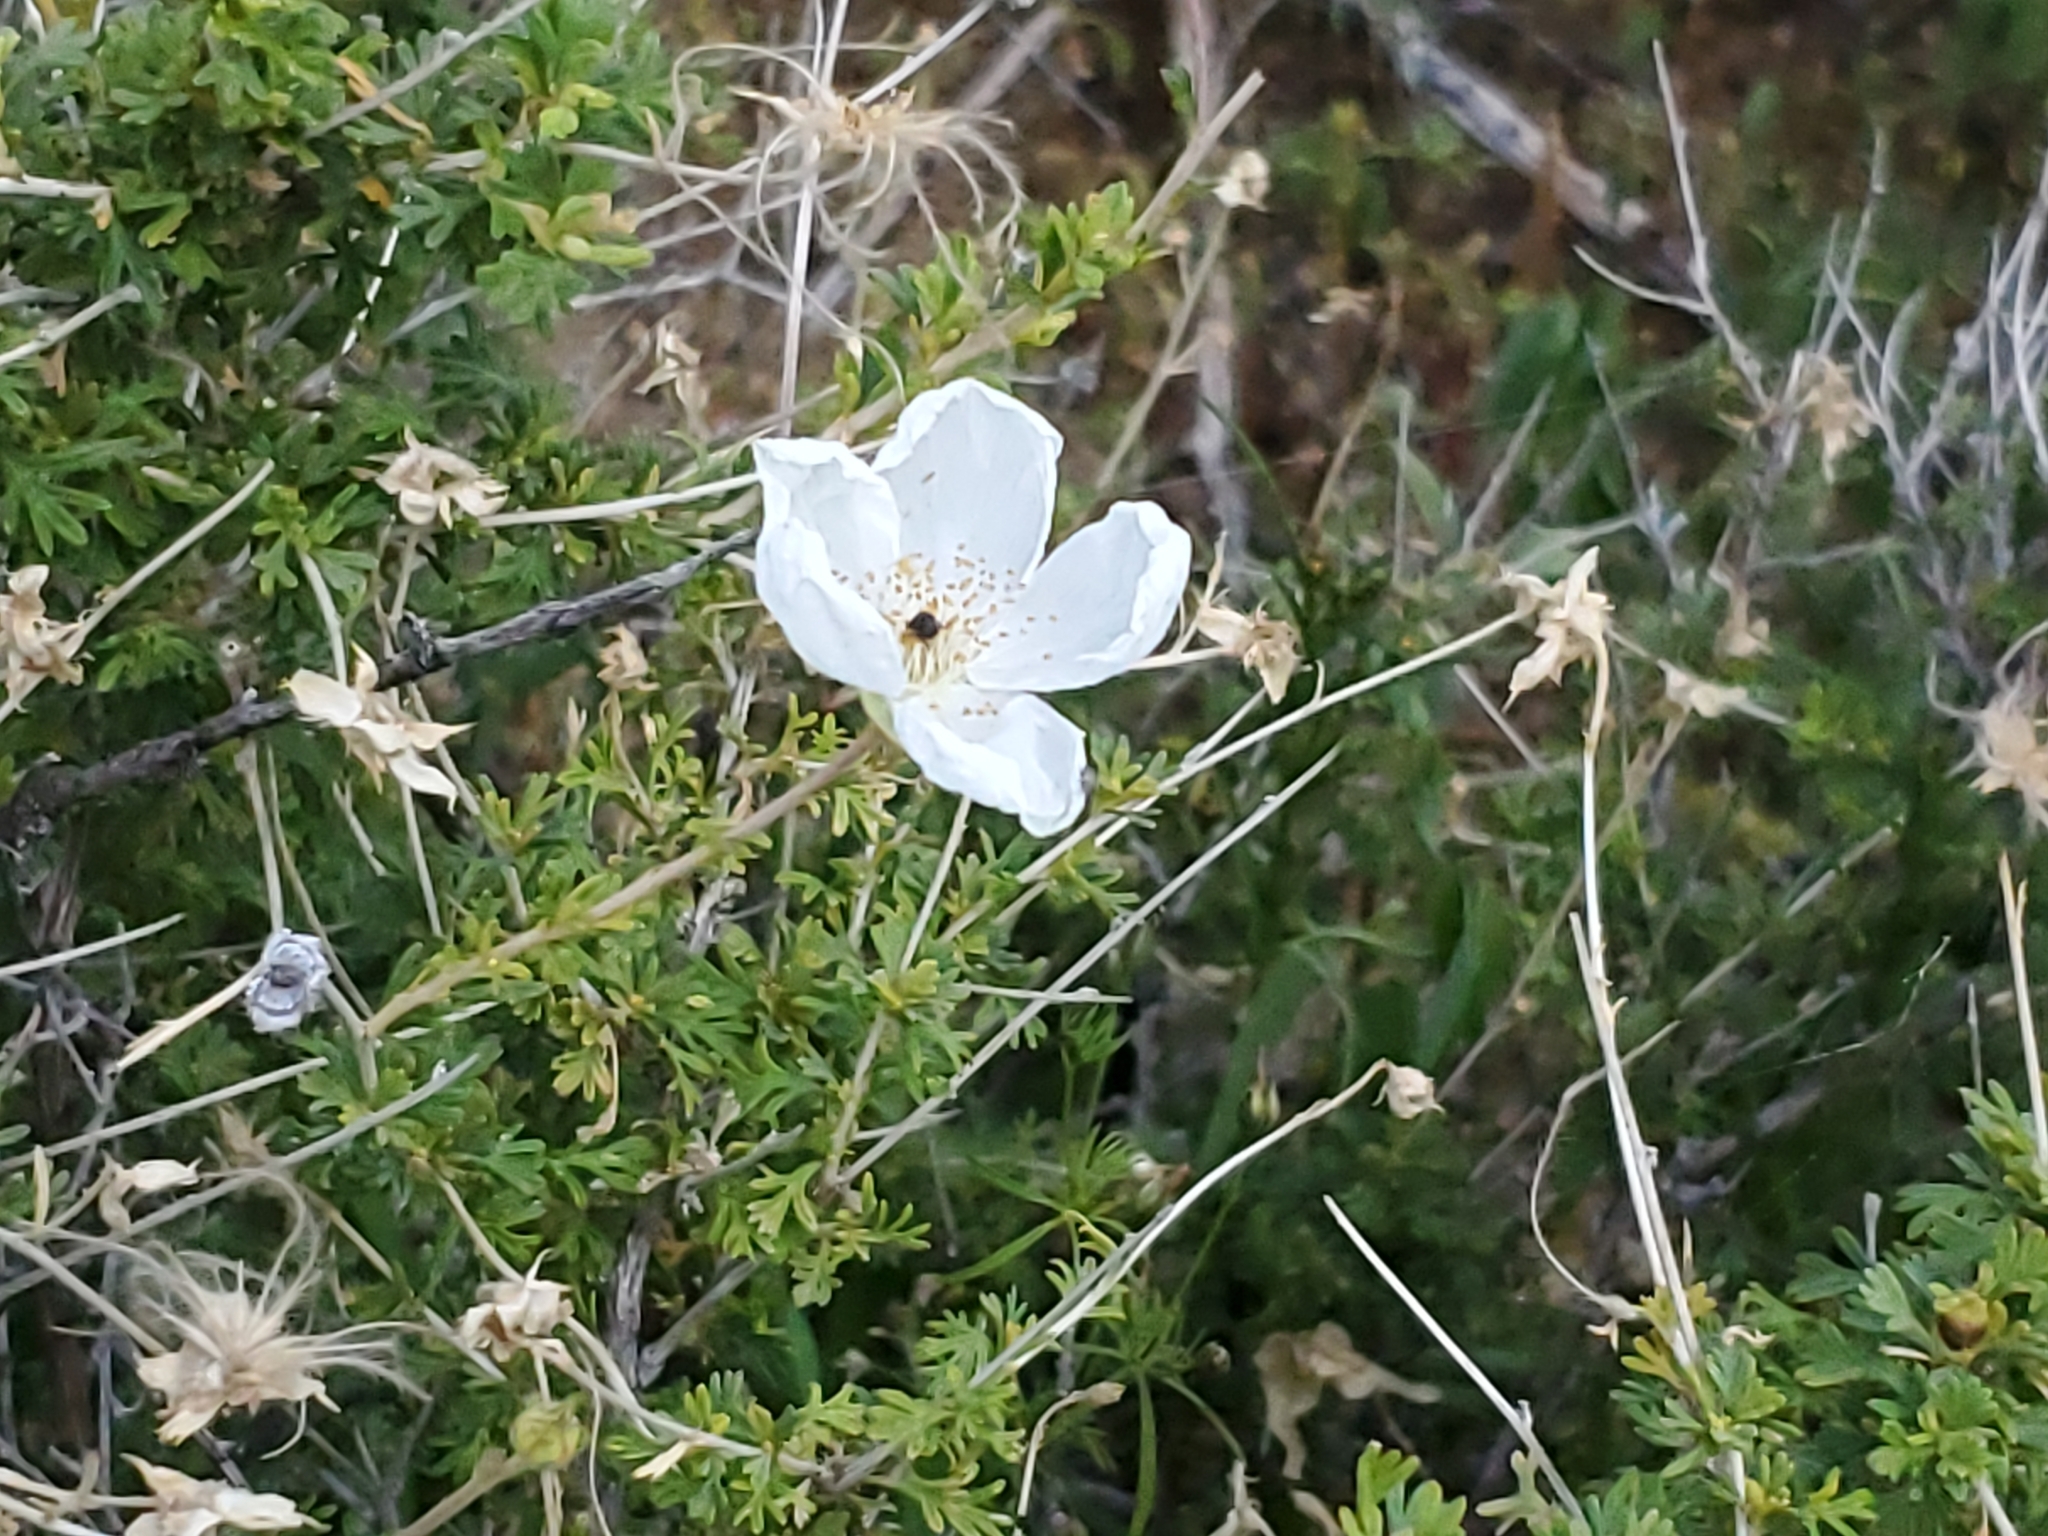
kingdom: Plantae
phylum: Tracheophyta
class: Magnoliopsida
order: Rosales
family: Rosaceae
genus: Fallugia
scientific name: Fallugia paradoxa
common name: Apache-plume
